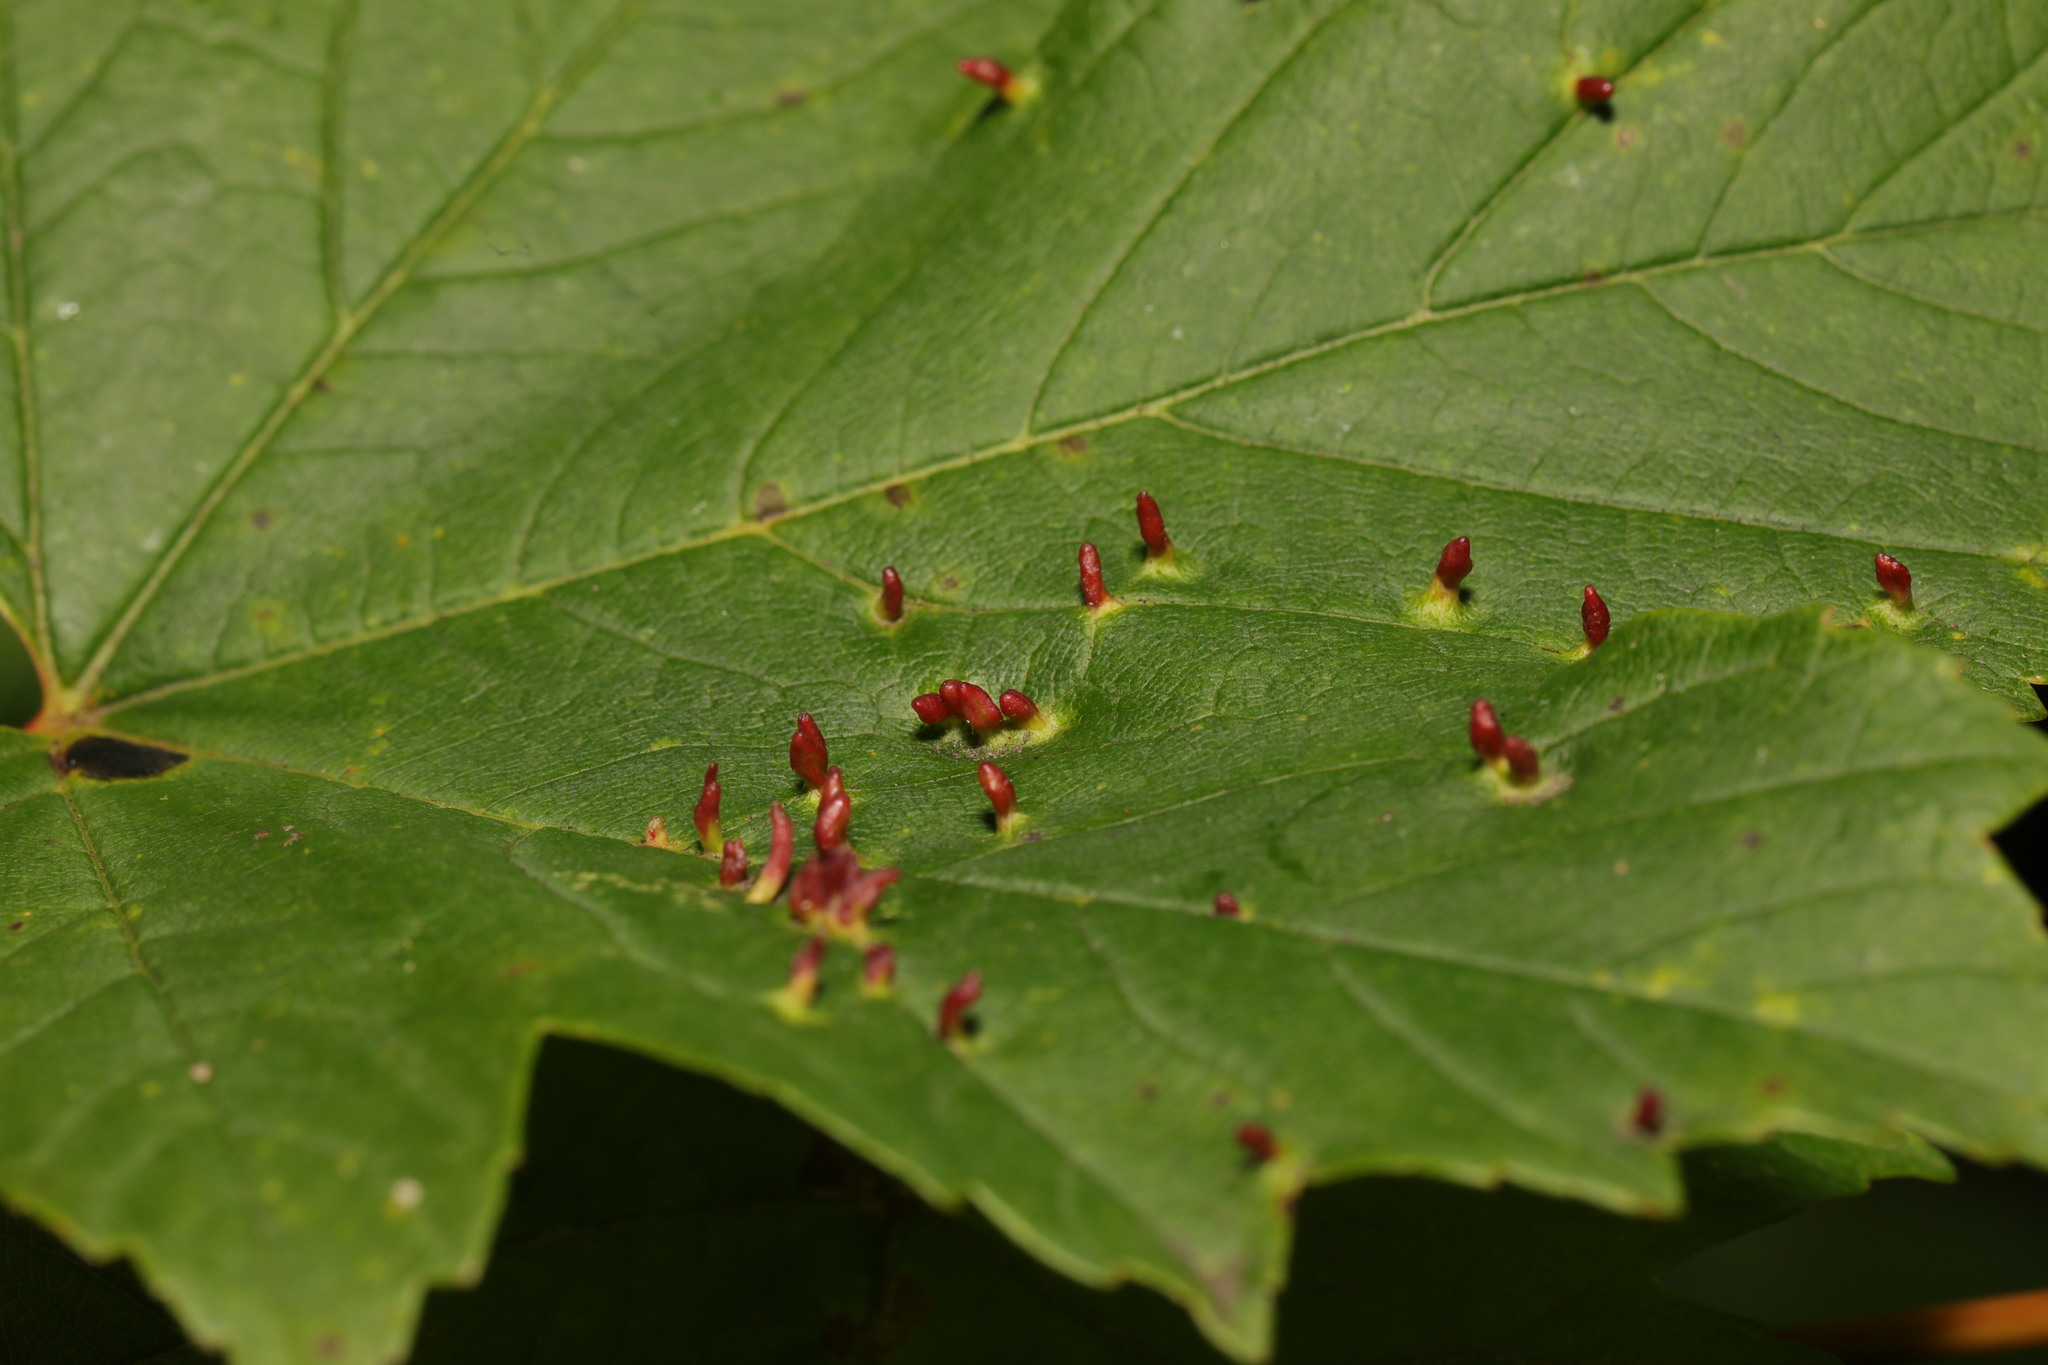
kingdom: Animalia
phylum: Arthropoda
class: Arachnida
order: Trombidiformes
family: Eriophyidae
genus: Aceria
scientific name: Aceria cephaloneus
